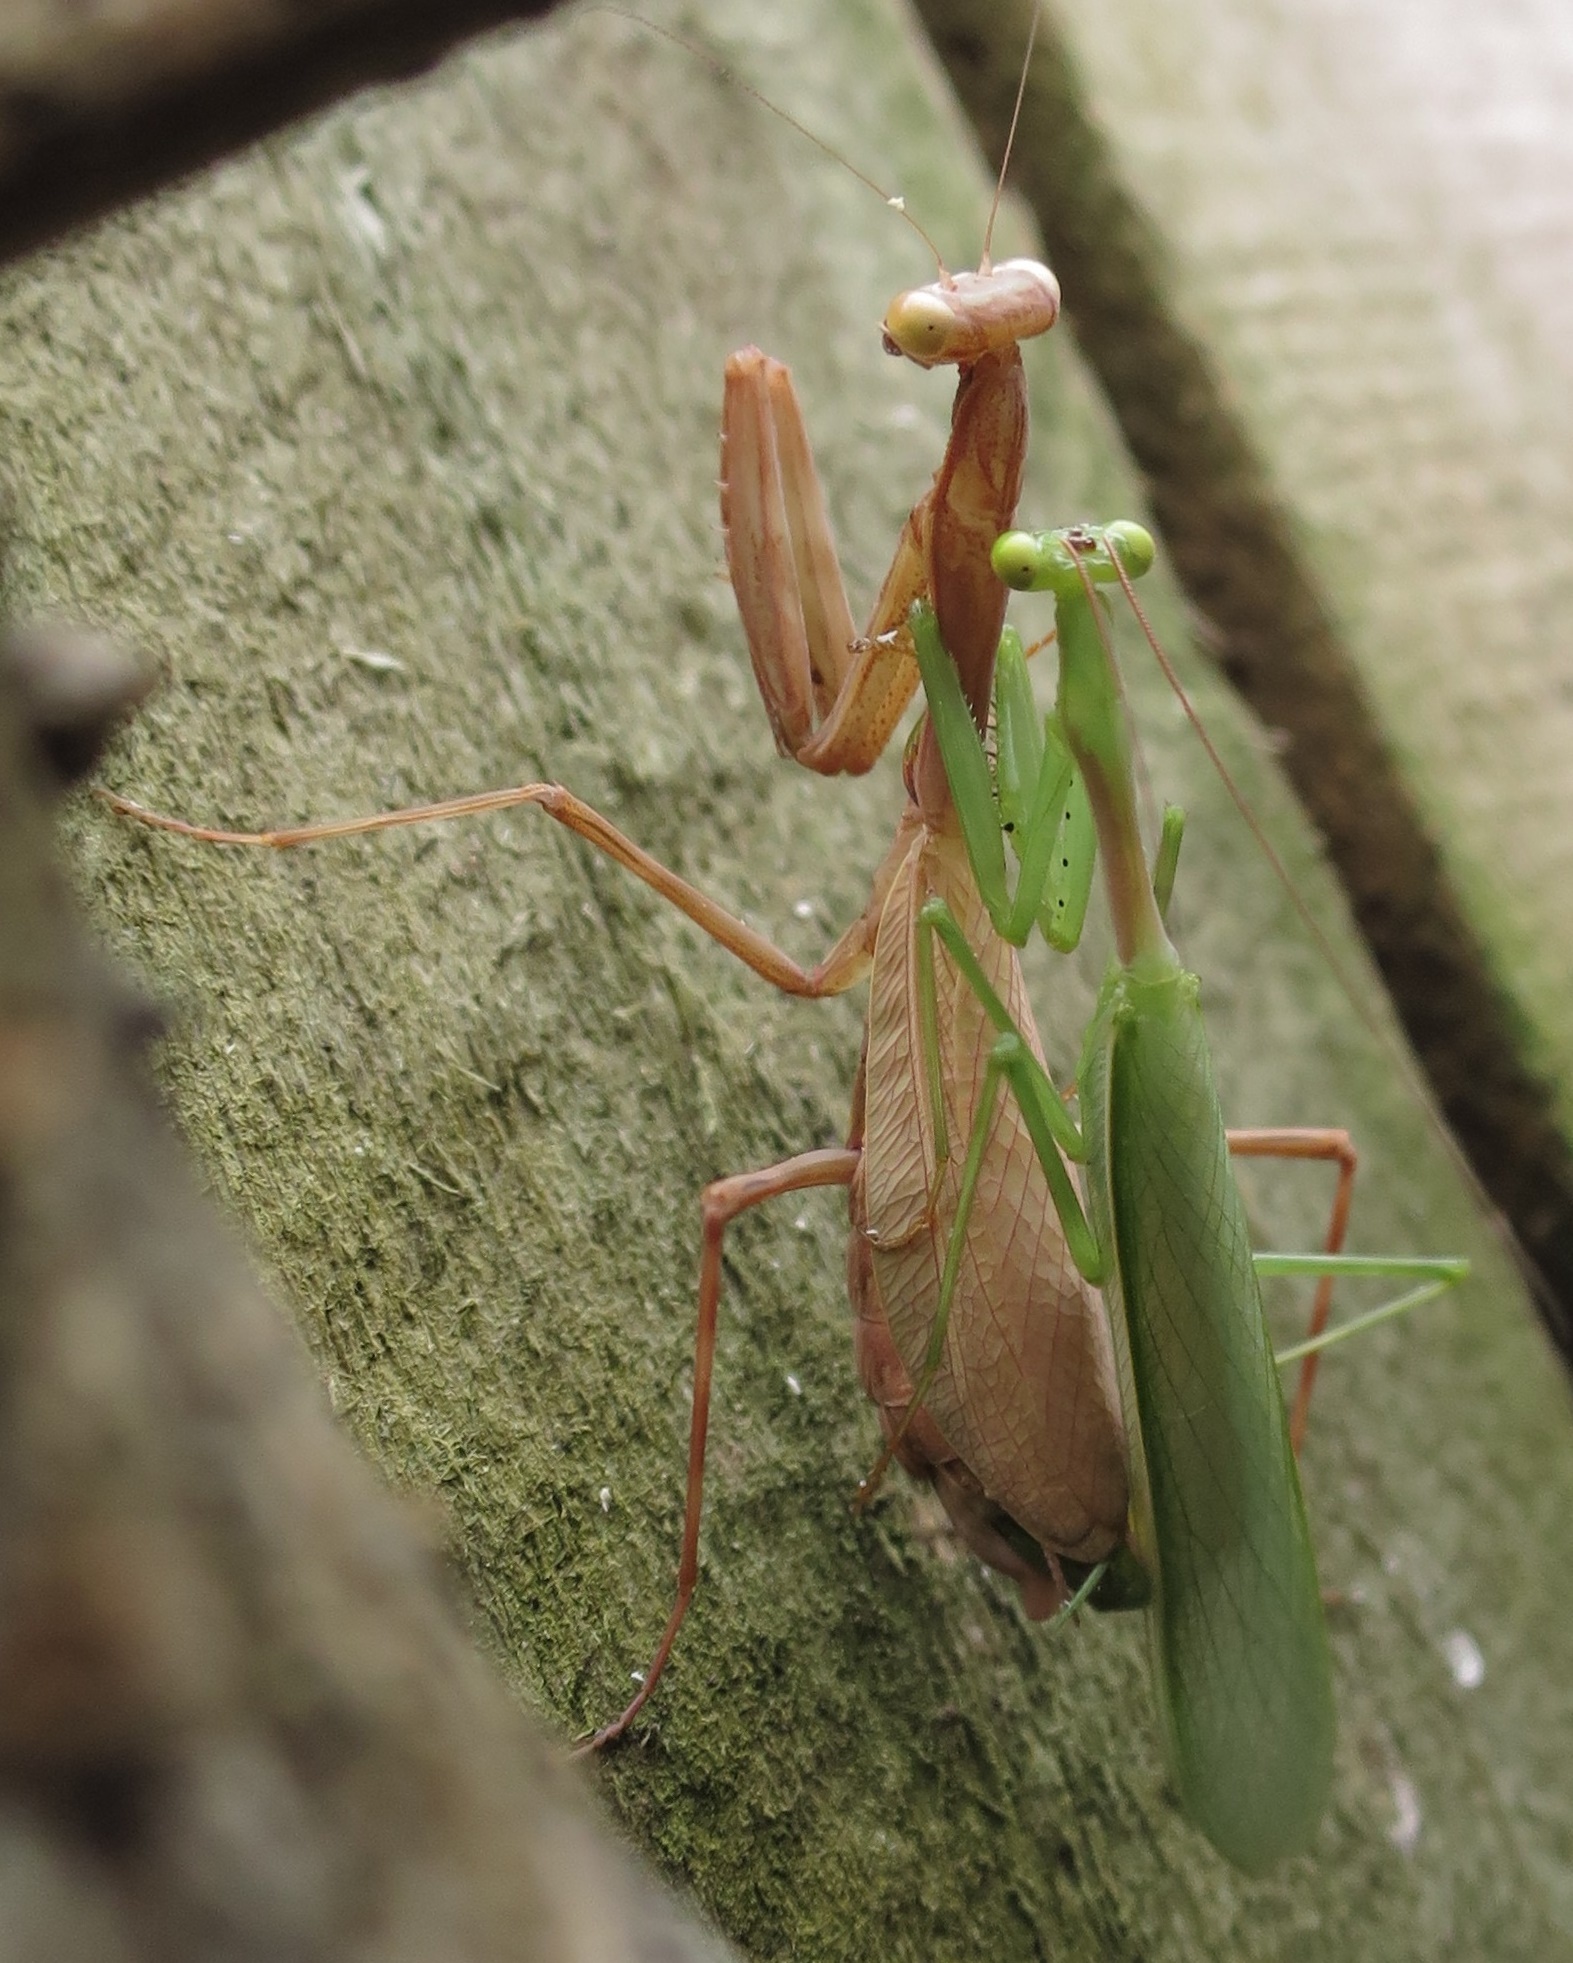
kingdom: Animalia
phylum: Arthropoda
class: Insecta
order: Mantodea
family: Miomantidae
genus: Miomantis
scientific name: Miomantis caffra
